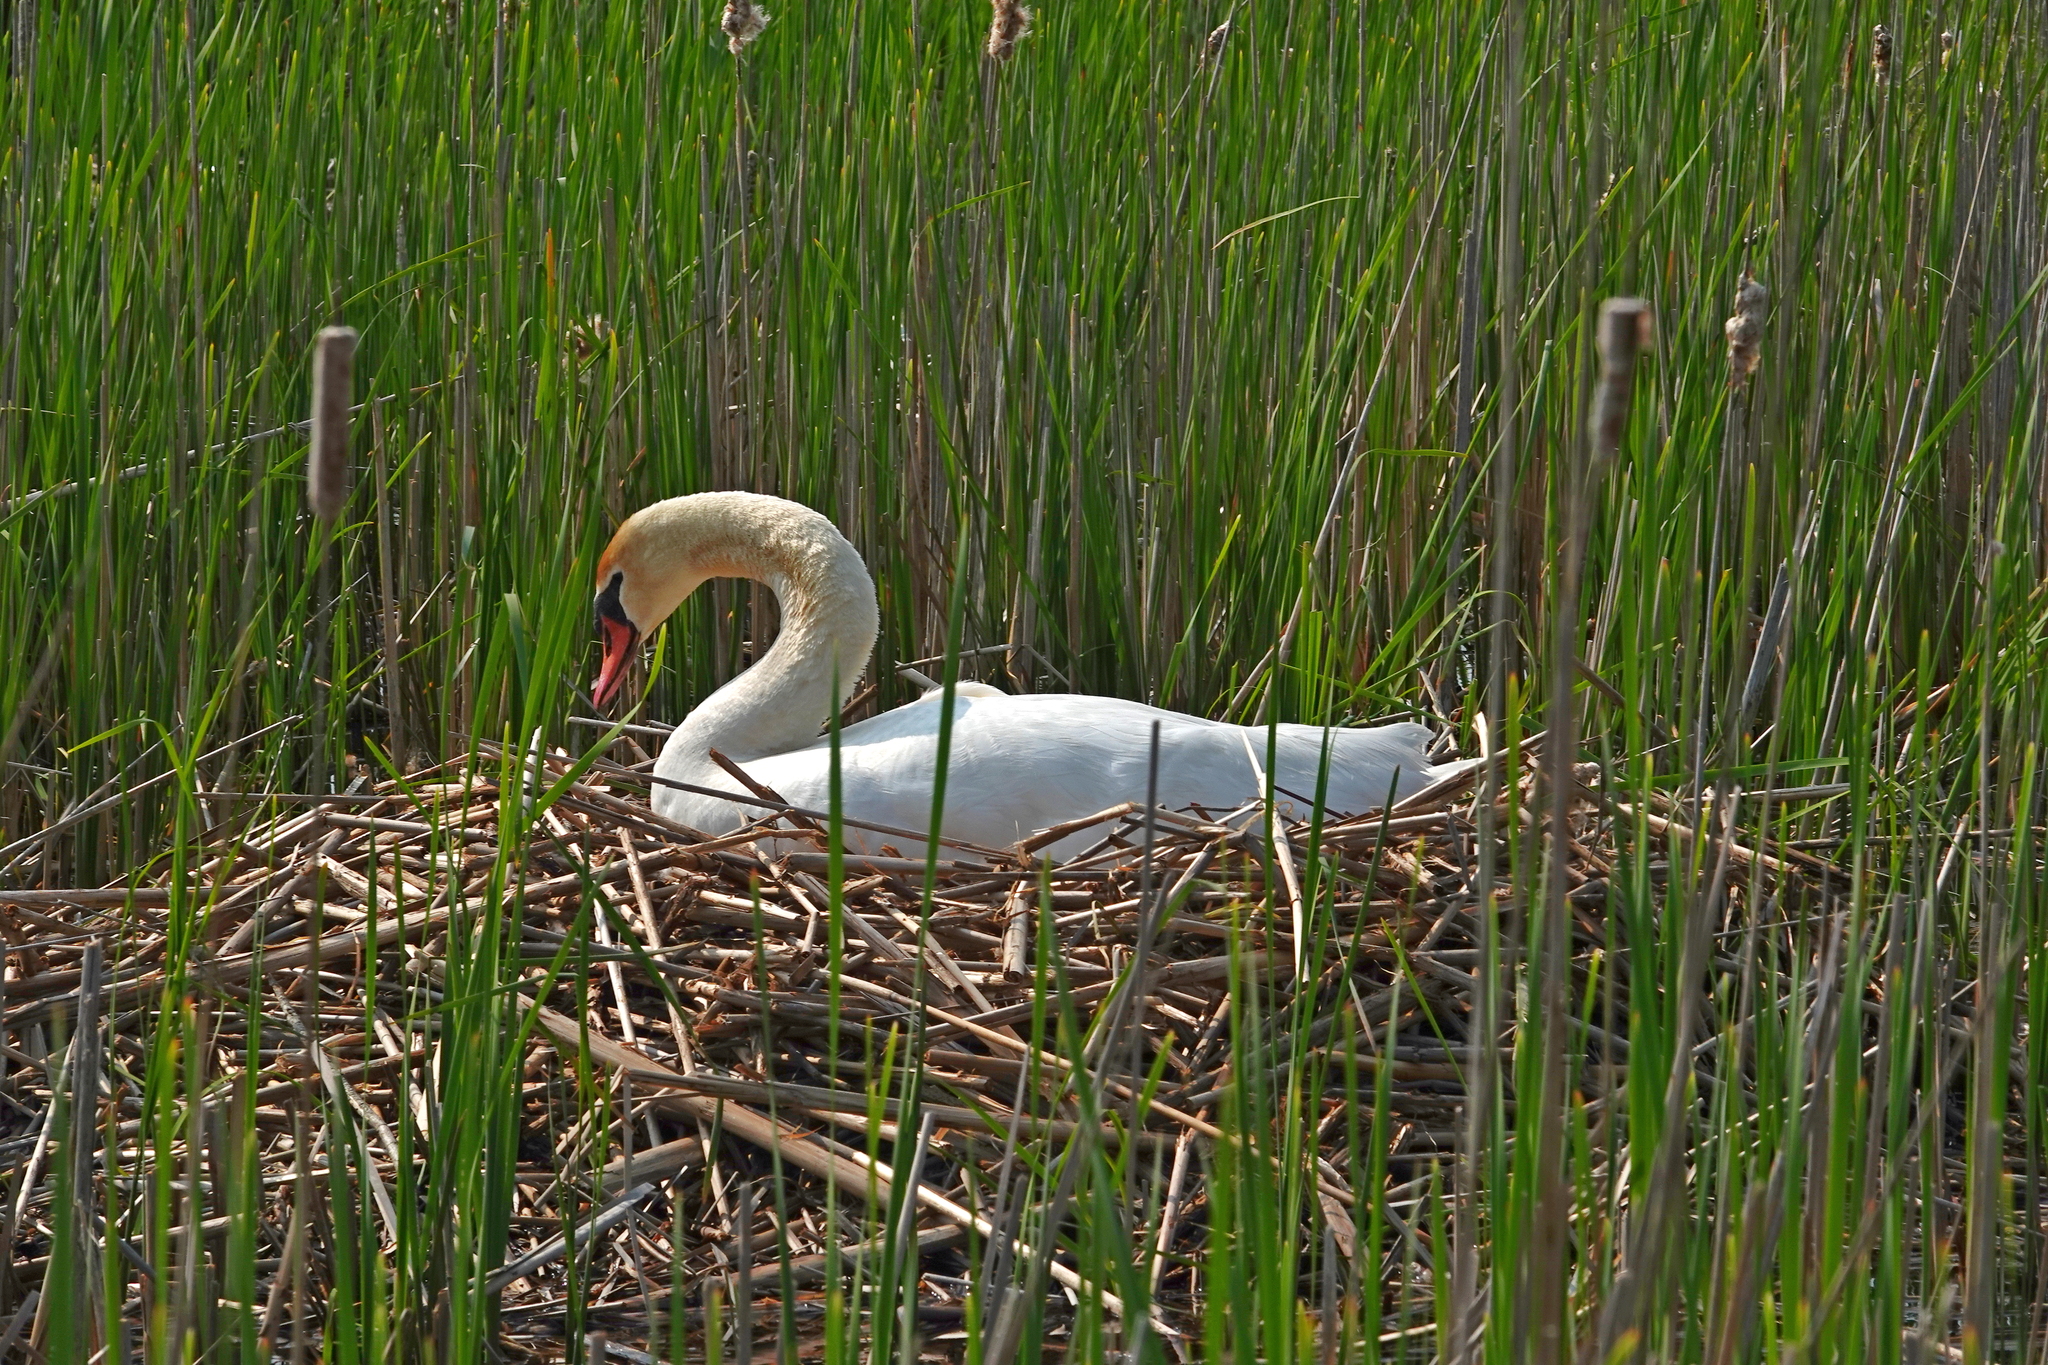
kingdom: Animalia
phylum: Chordata
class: Aves
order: Anseriformes
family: Anatidae
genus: Cygnus
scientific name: Cygnus olor
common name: Mute swan
